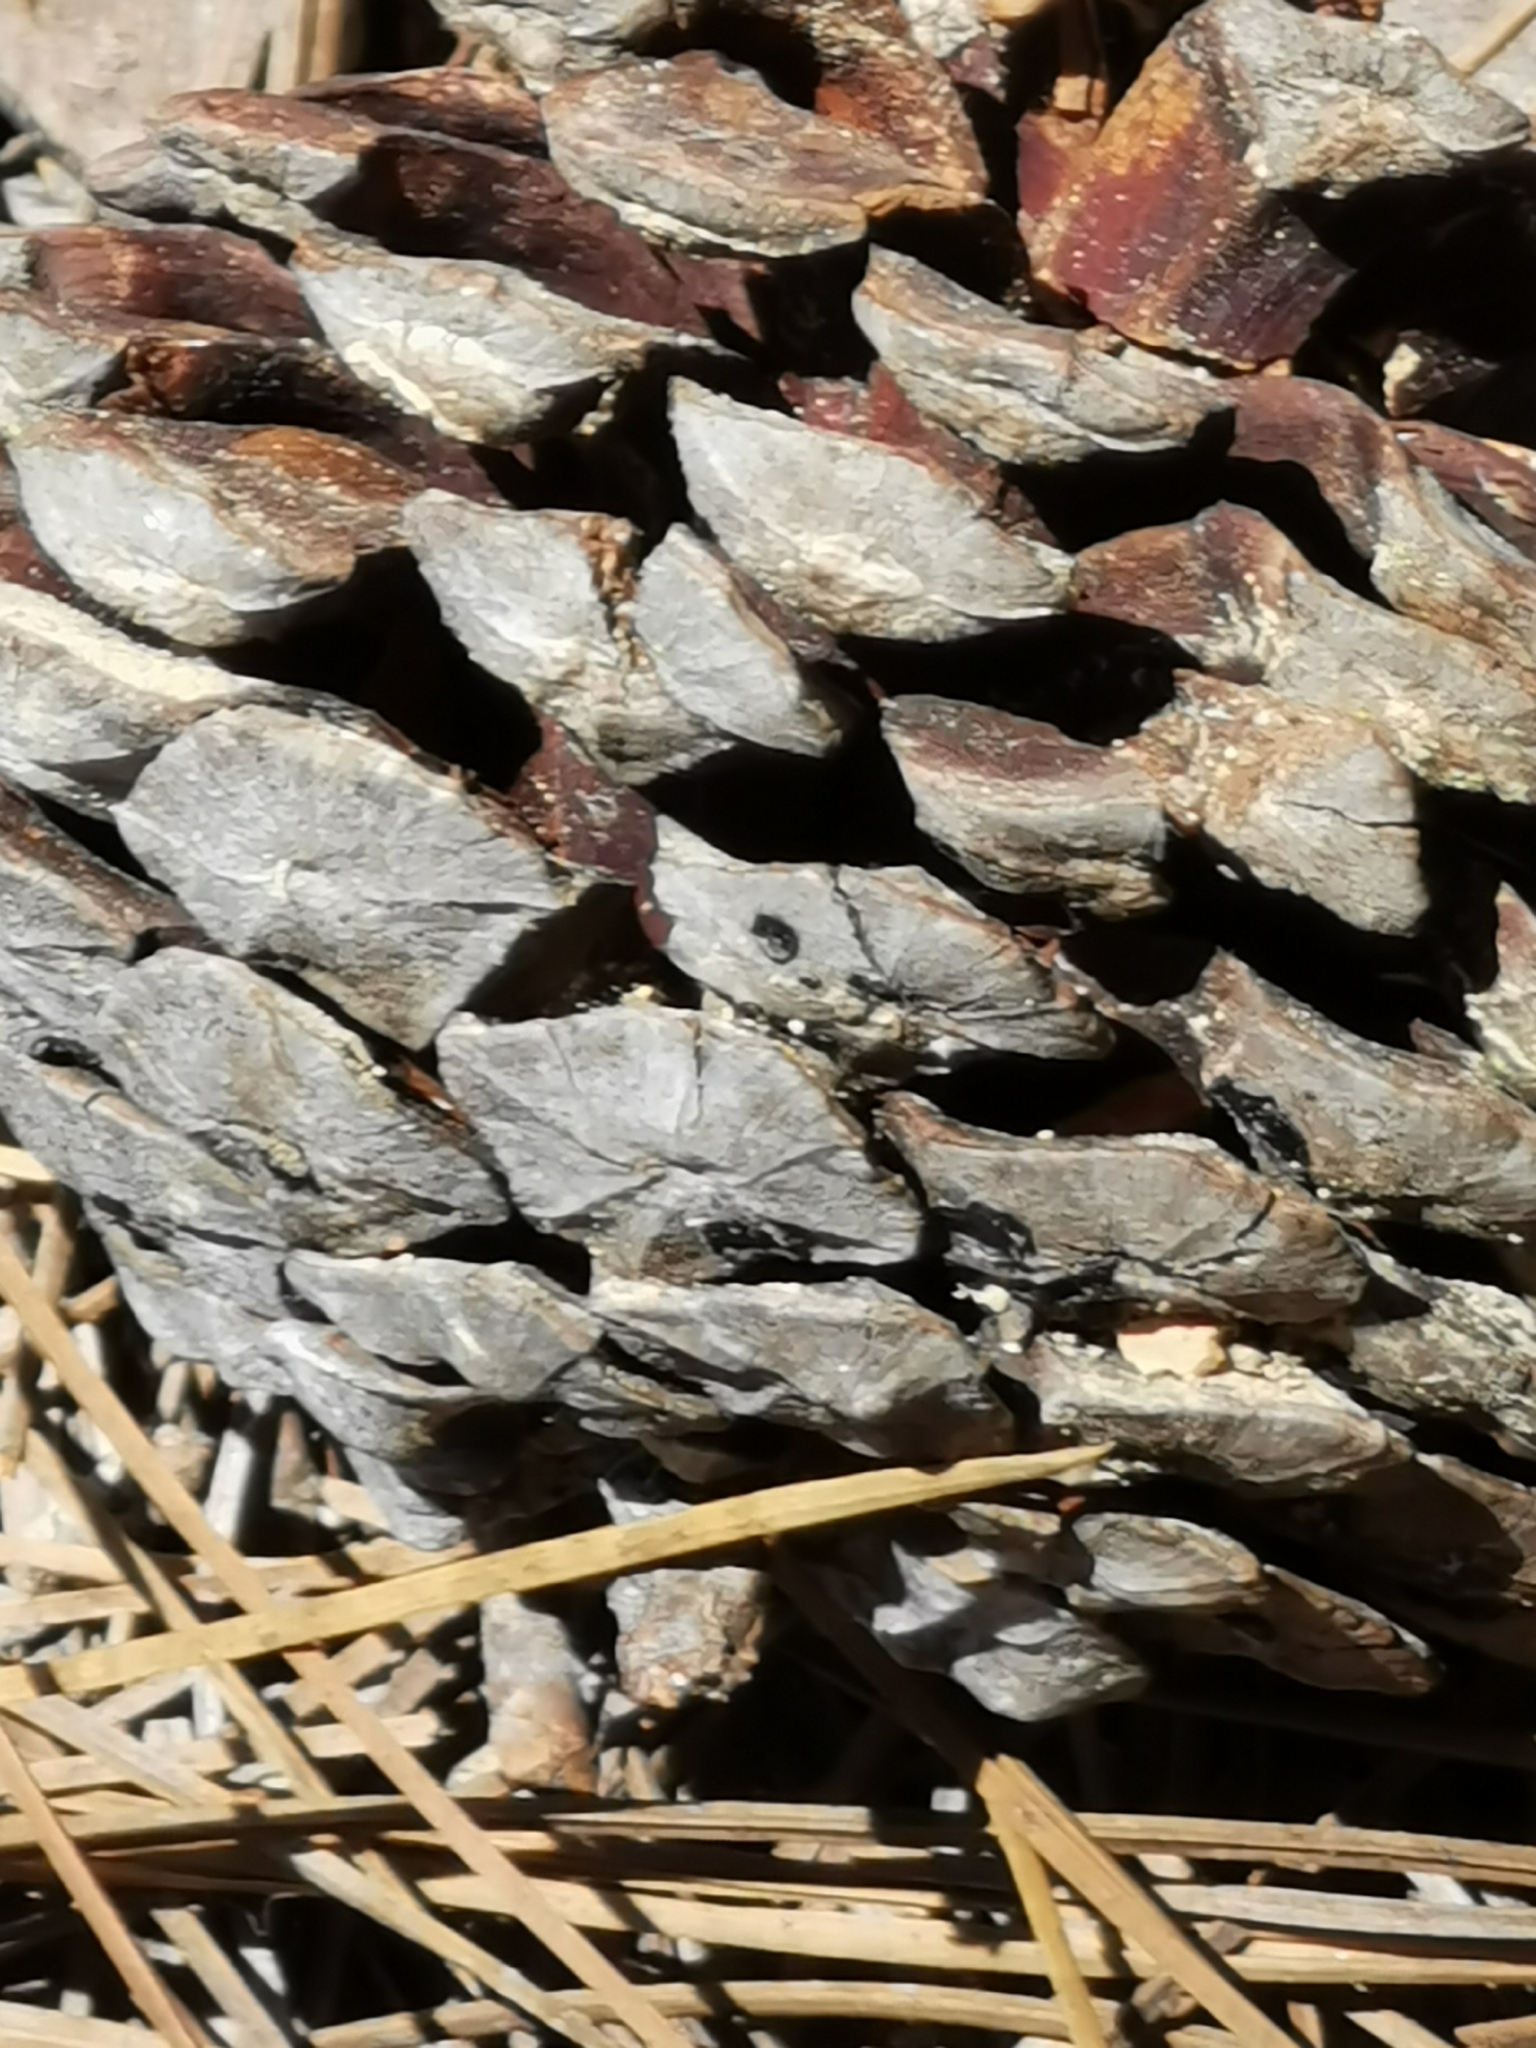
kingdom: Plantae
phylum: Tracheophyta
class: Pinopsida
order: Pinales
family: Pinaceae
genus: Pinus
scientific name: Pinus oocarpa
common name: Egg-cone pine
